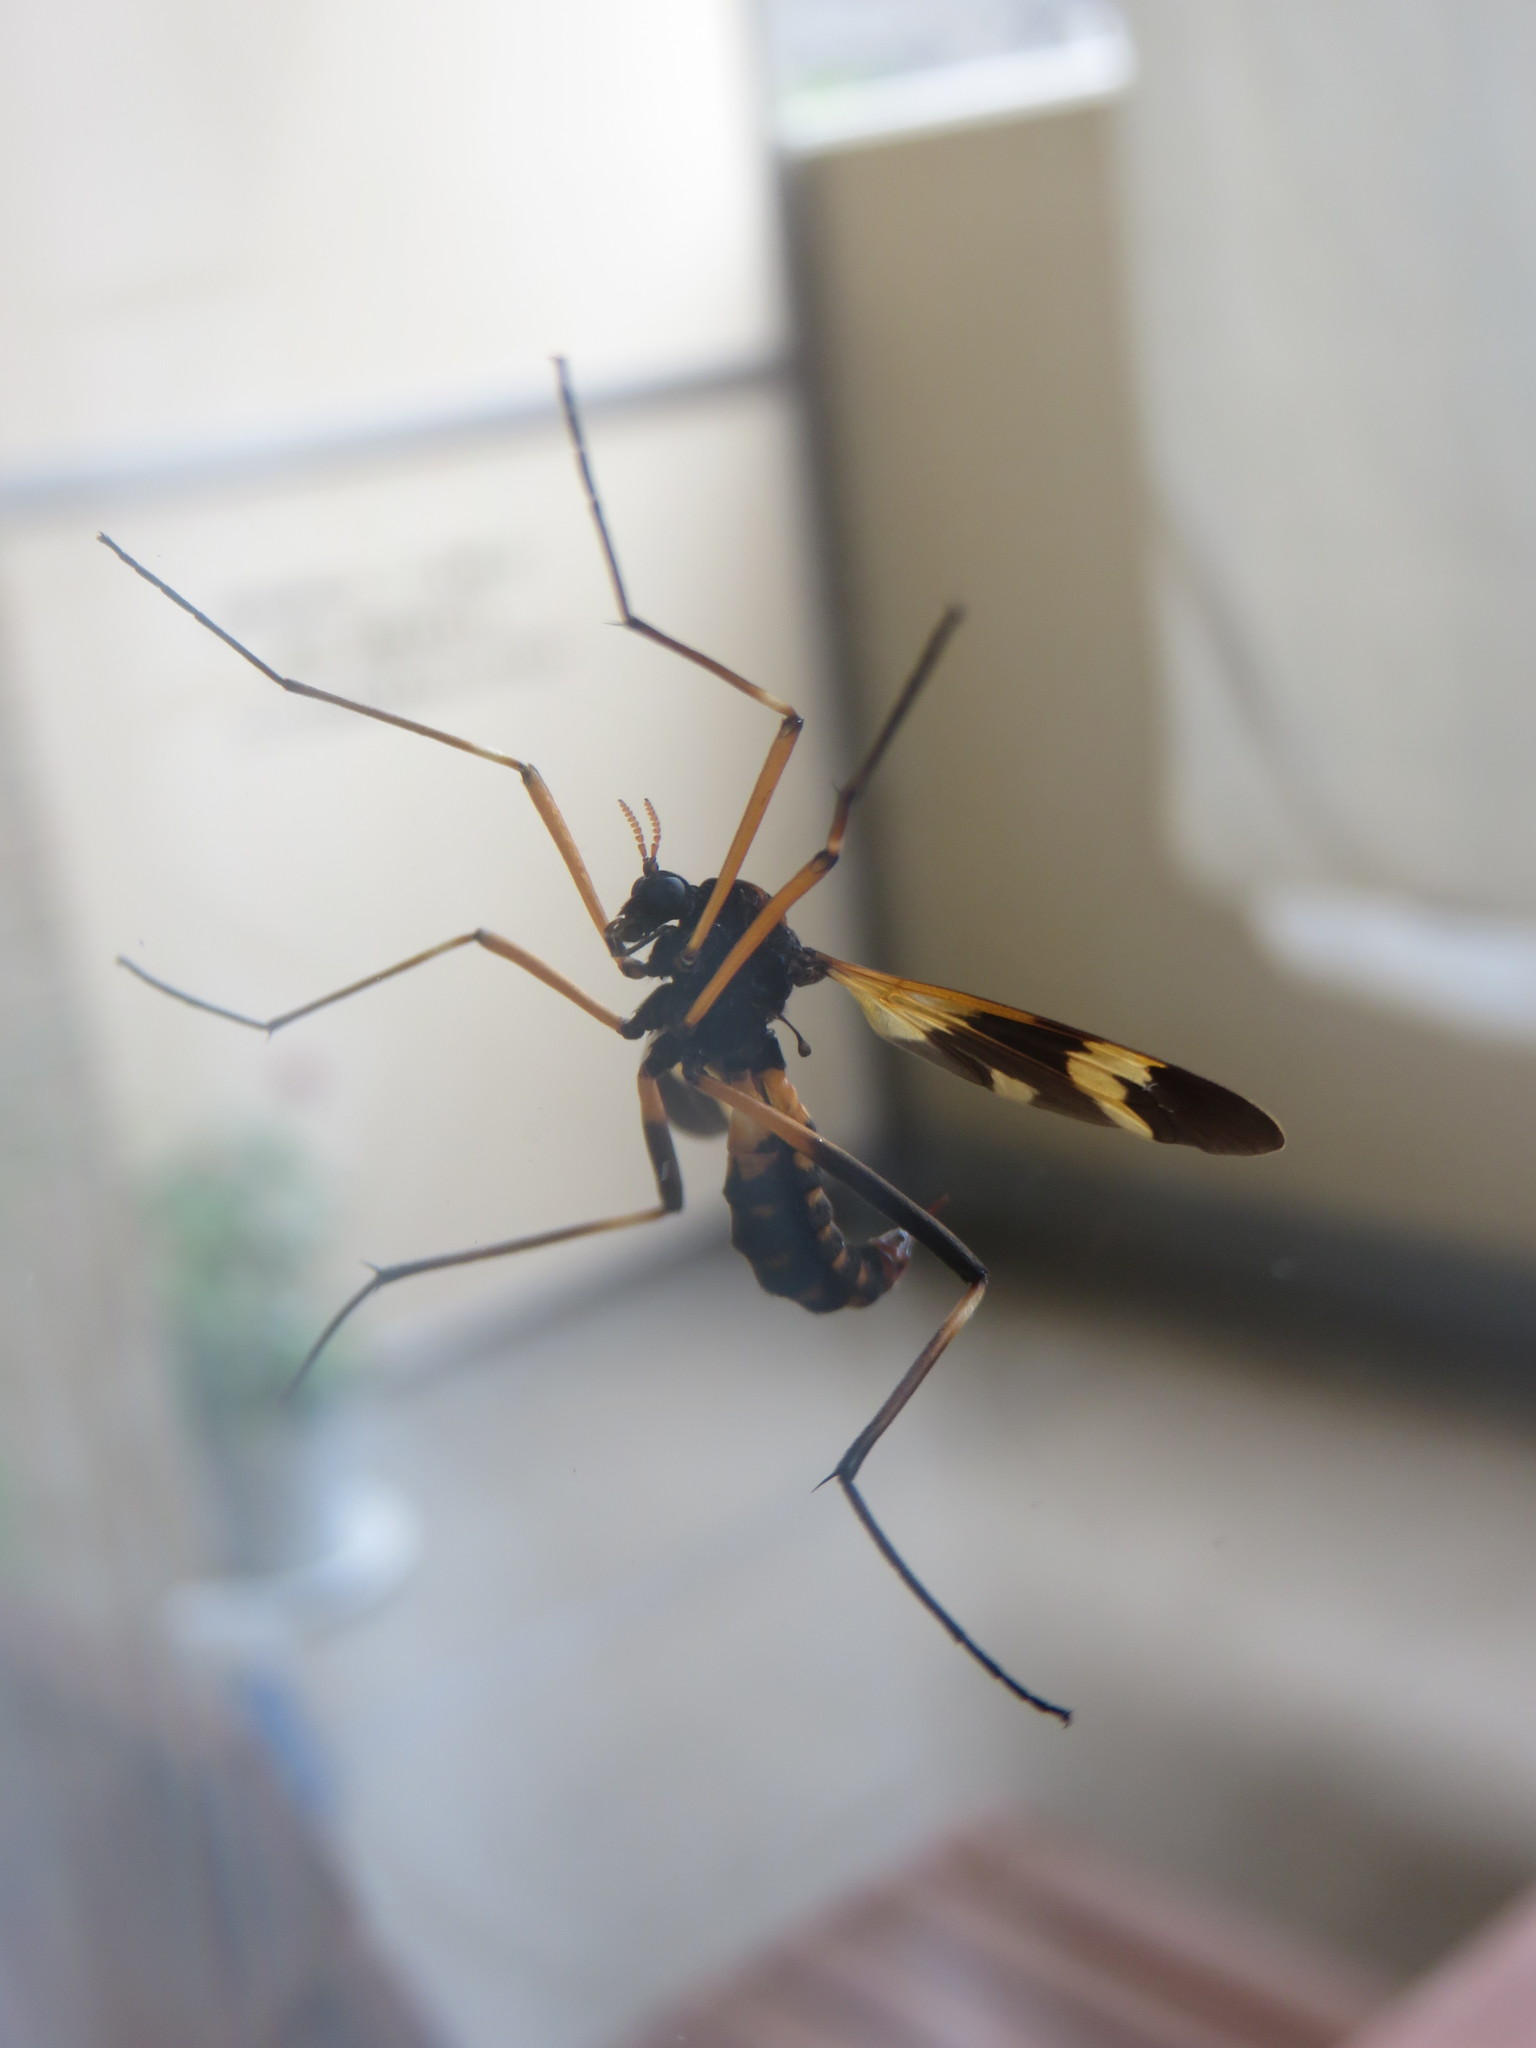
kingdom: Animalia
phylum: Arthropoda
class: Insecta
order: Diptera
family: Tipulidae
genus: Pselliophora
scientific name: Pselliophora bifascipennis
